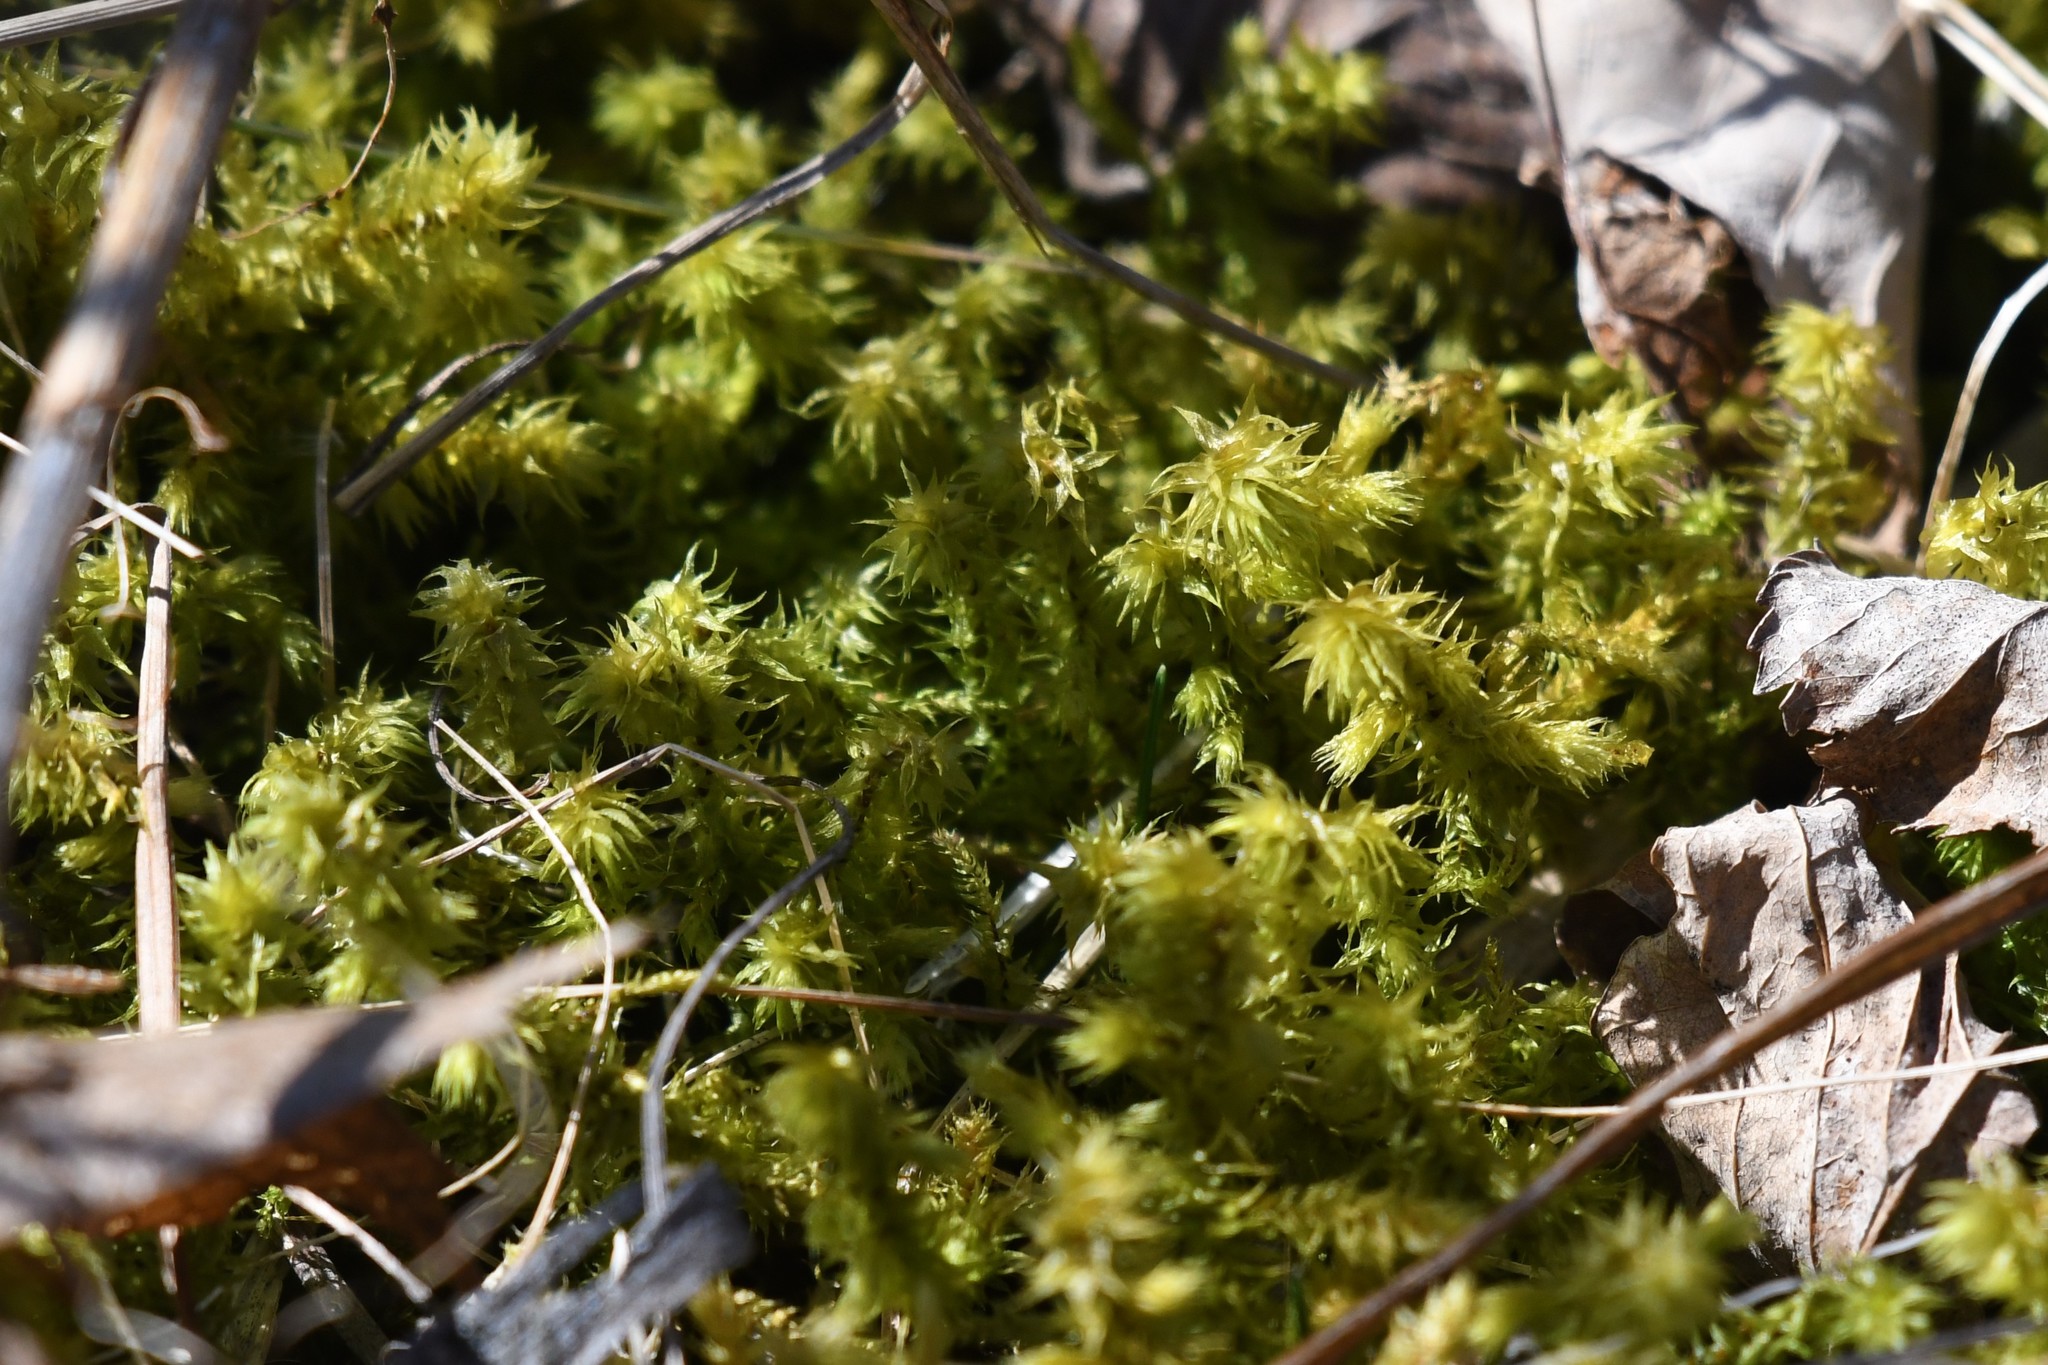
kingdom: Plantae
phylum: Bryophyta
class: Bryopsida
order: Hypnales
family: Hylocomiaceae
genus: Hylocomiadelphus
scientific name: Hylocomiadelphus triquetrus
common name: Rough goose neck moss
